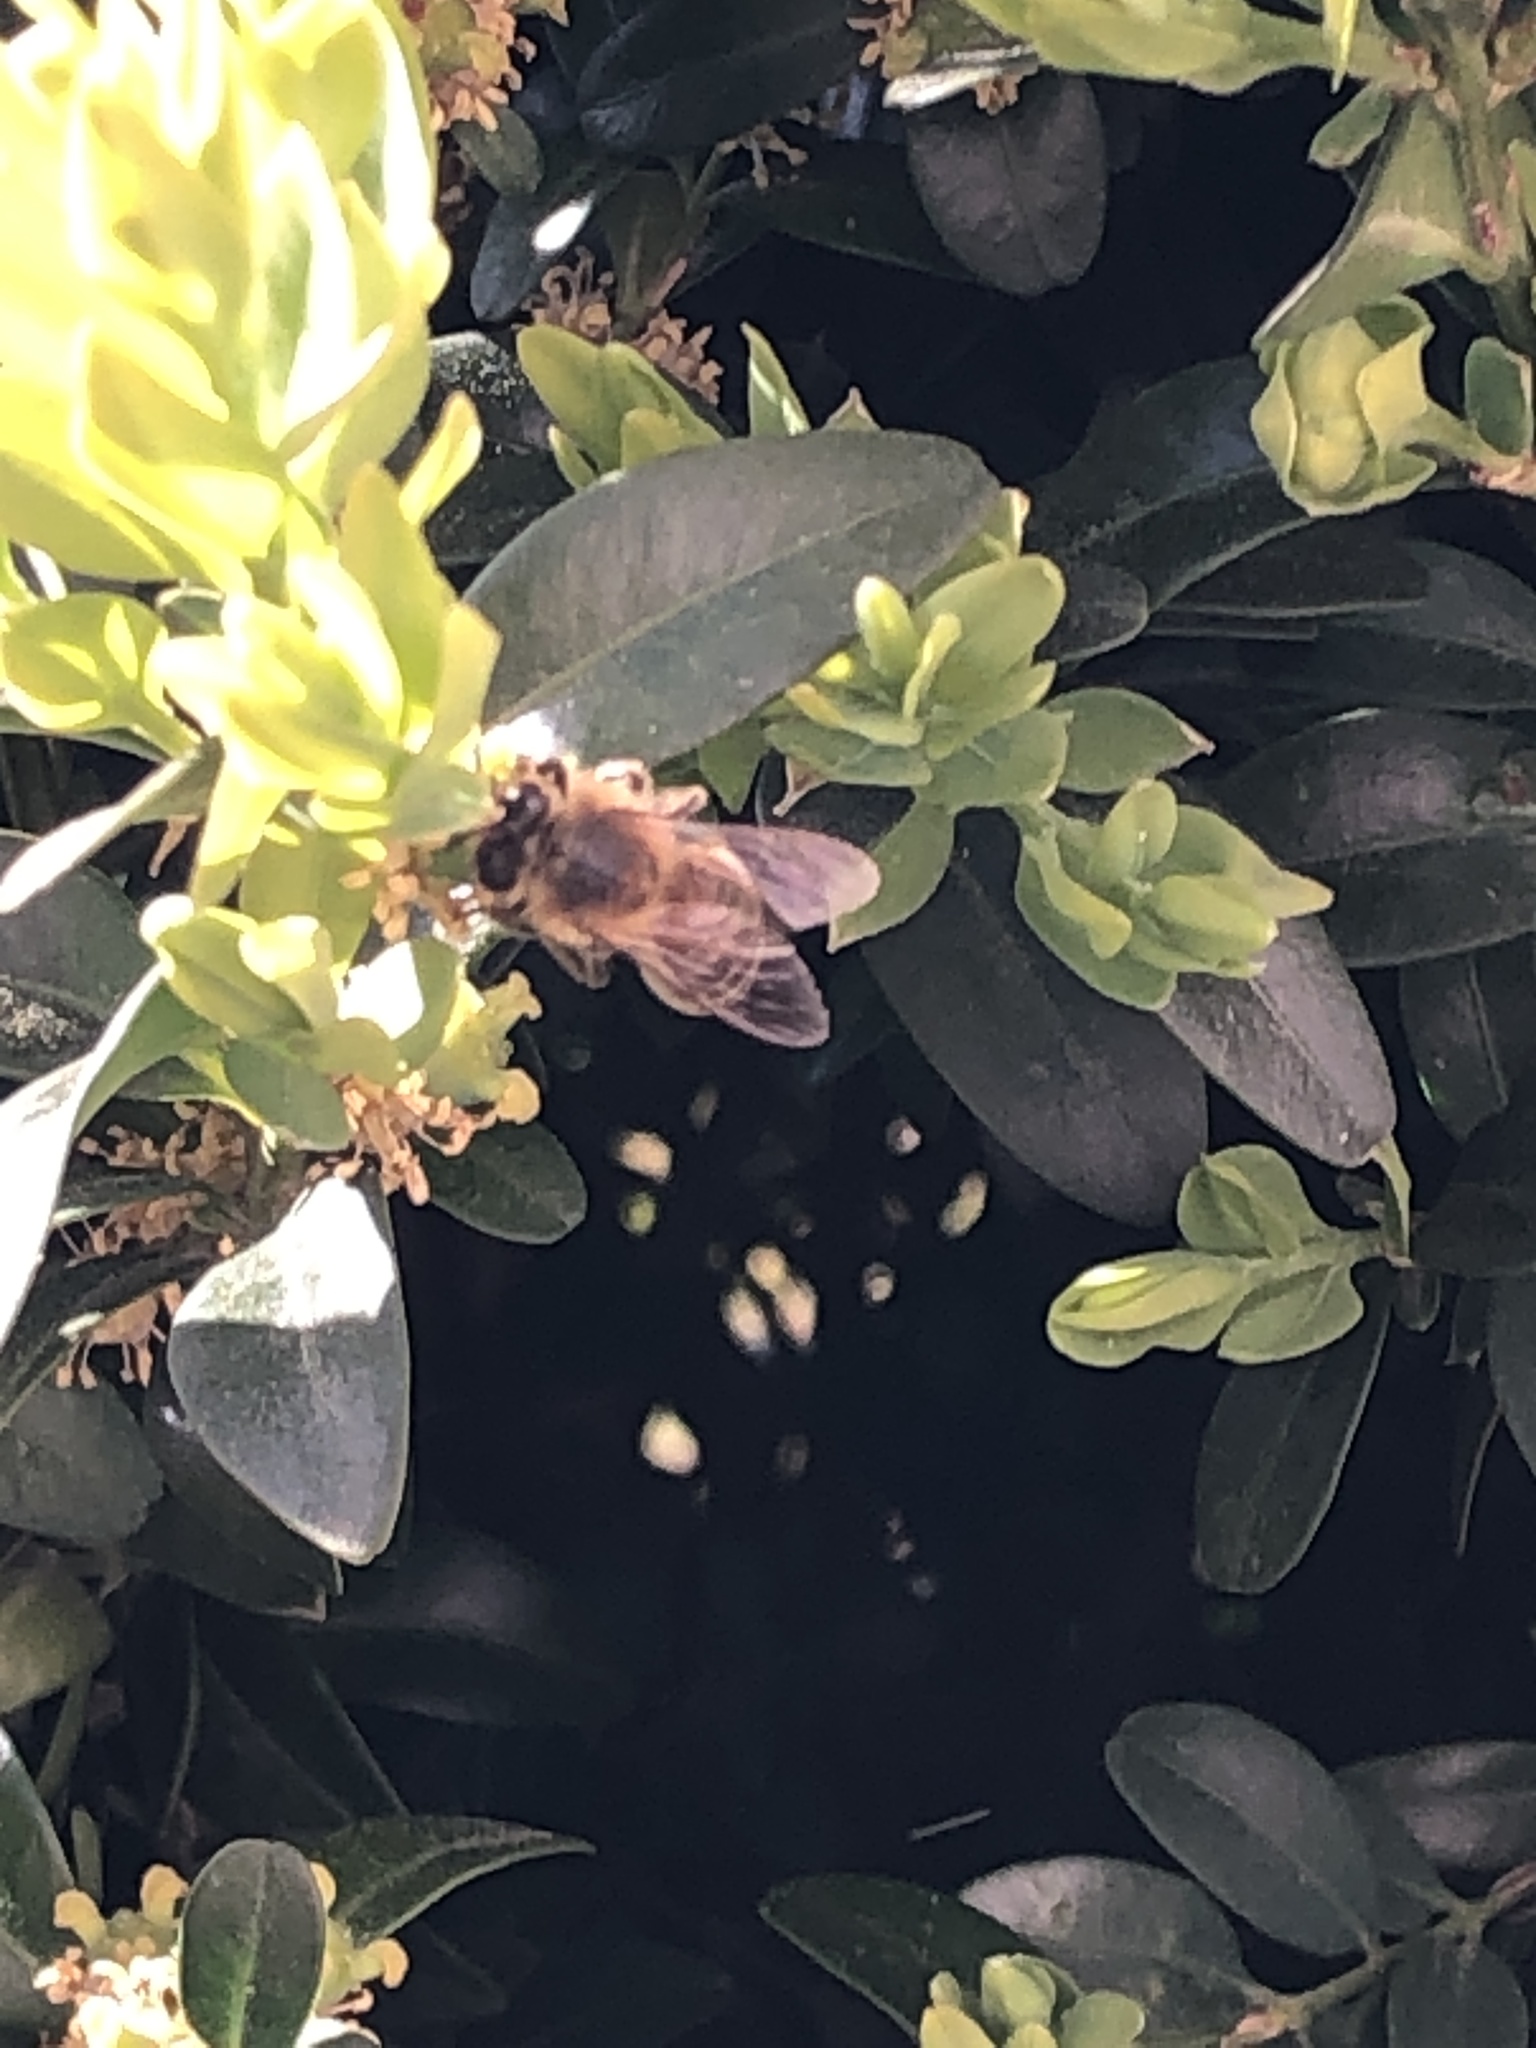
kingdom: Animalia
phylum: Arthropoda
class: Insecta
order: Hymenoptera
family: Apidae
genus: Apis
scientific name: Apis mellifera
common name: Honey bee
